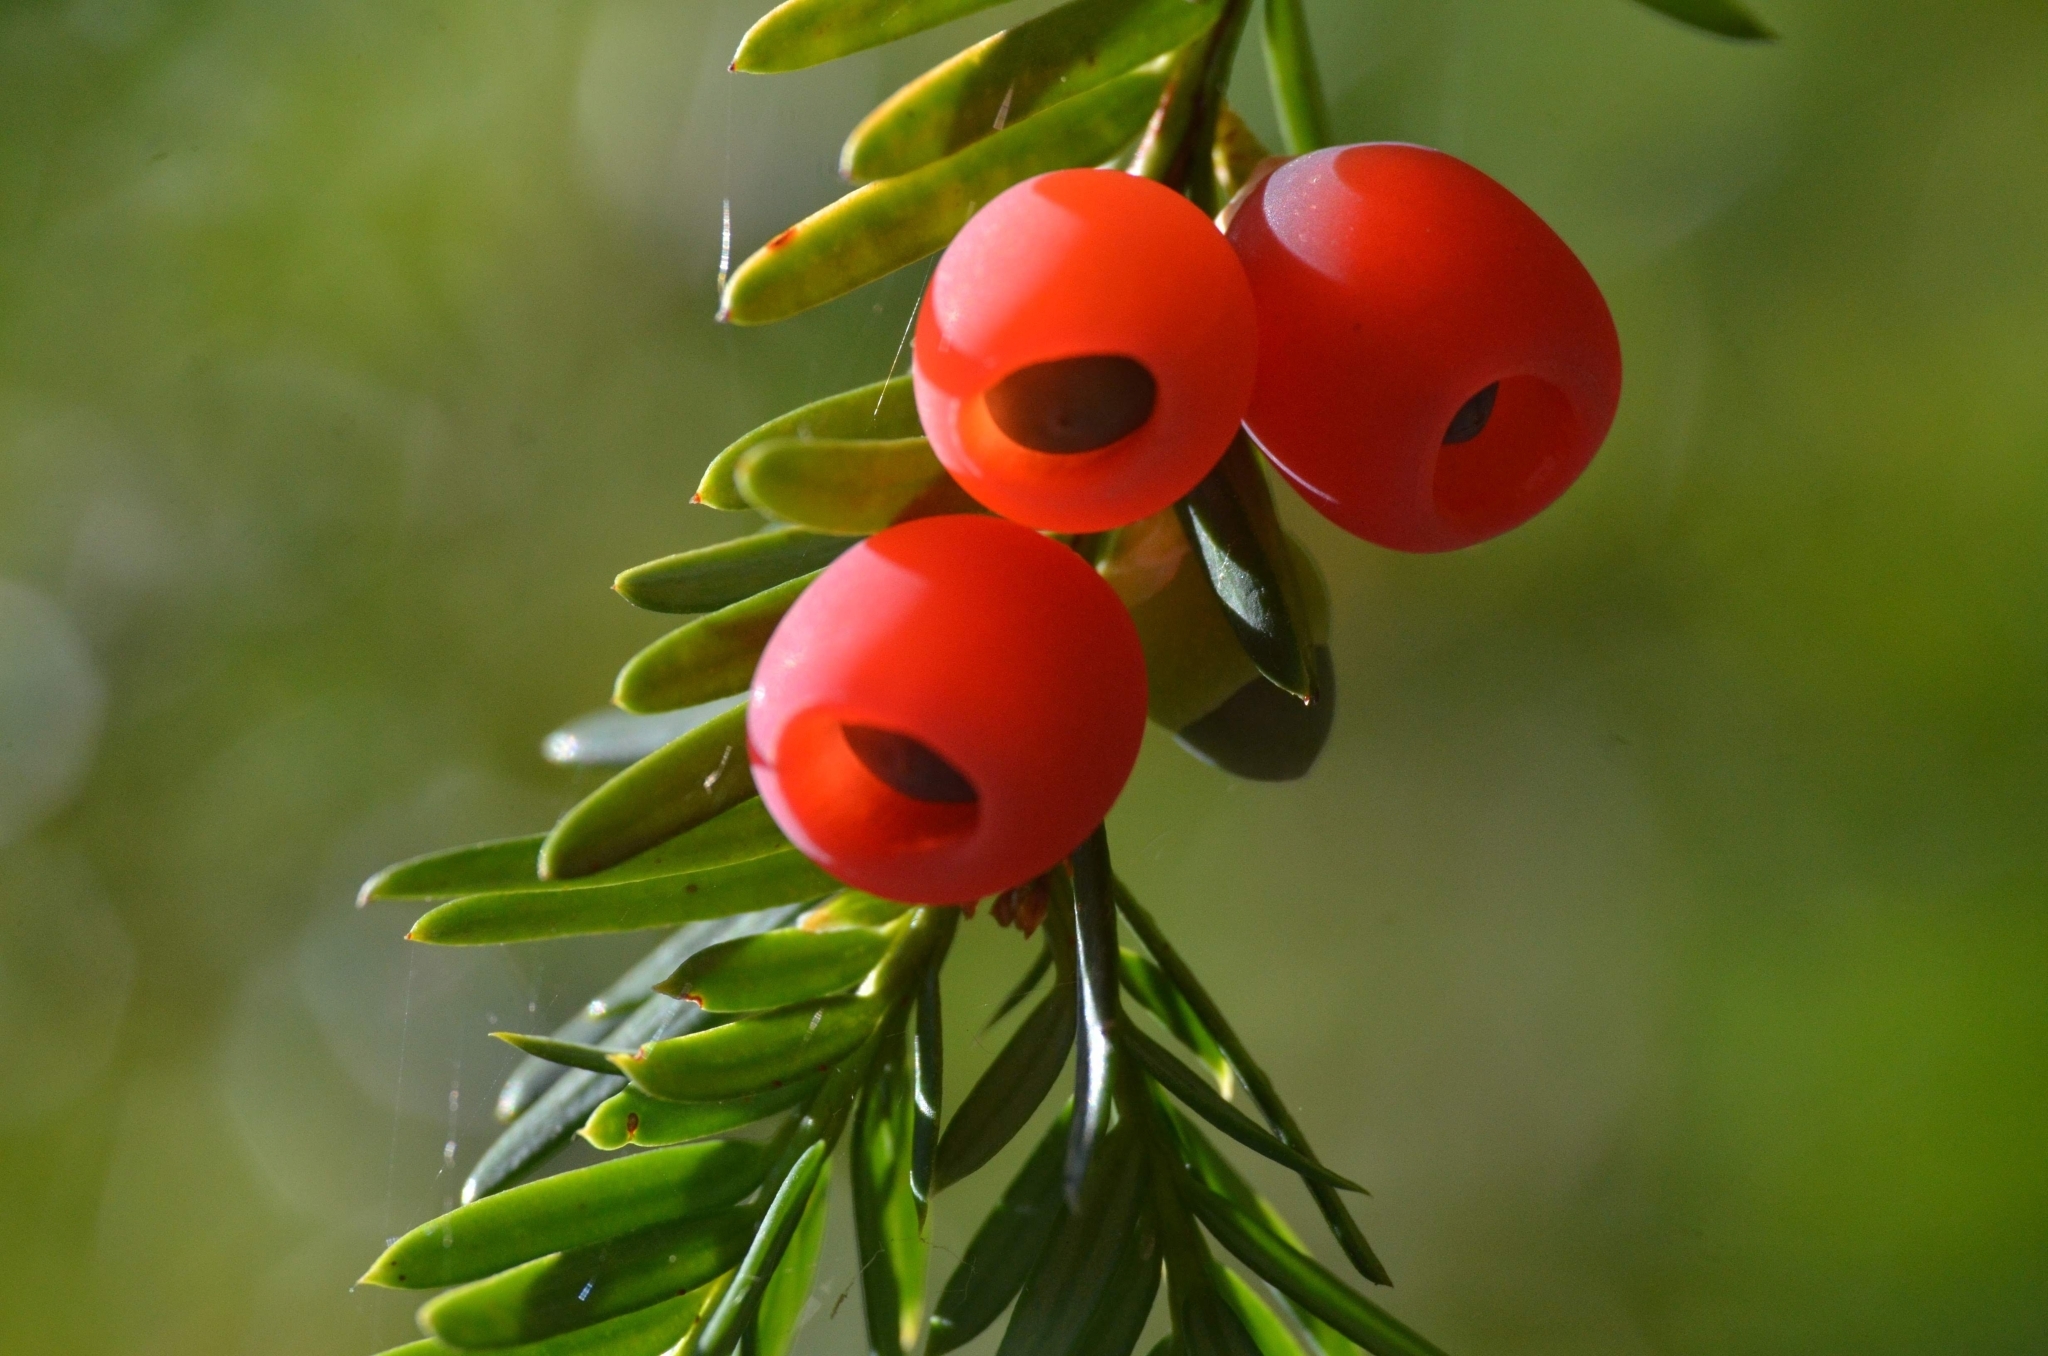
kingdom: Plantae
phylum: Tracheophyta
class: Pinopsida
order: Pinales
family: Taxaceae
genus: Taxus
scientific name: Taxus baccata
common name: Yew
